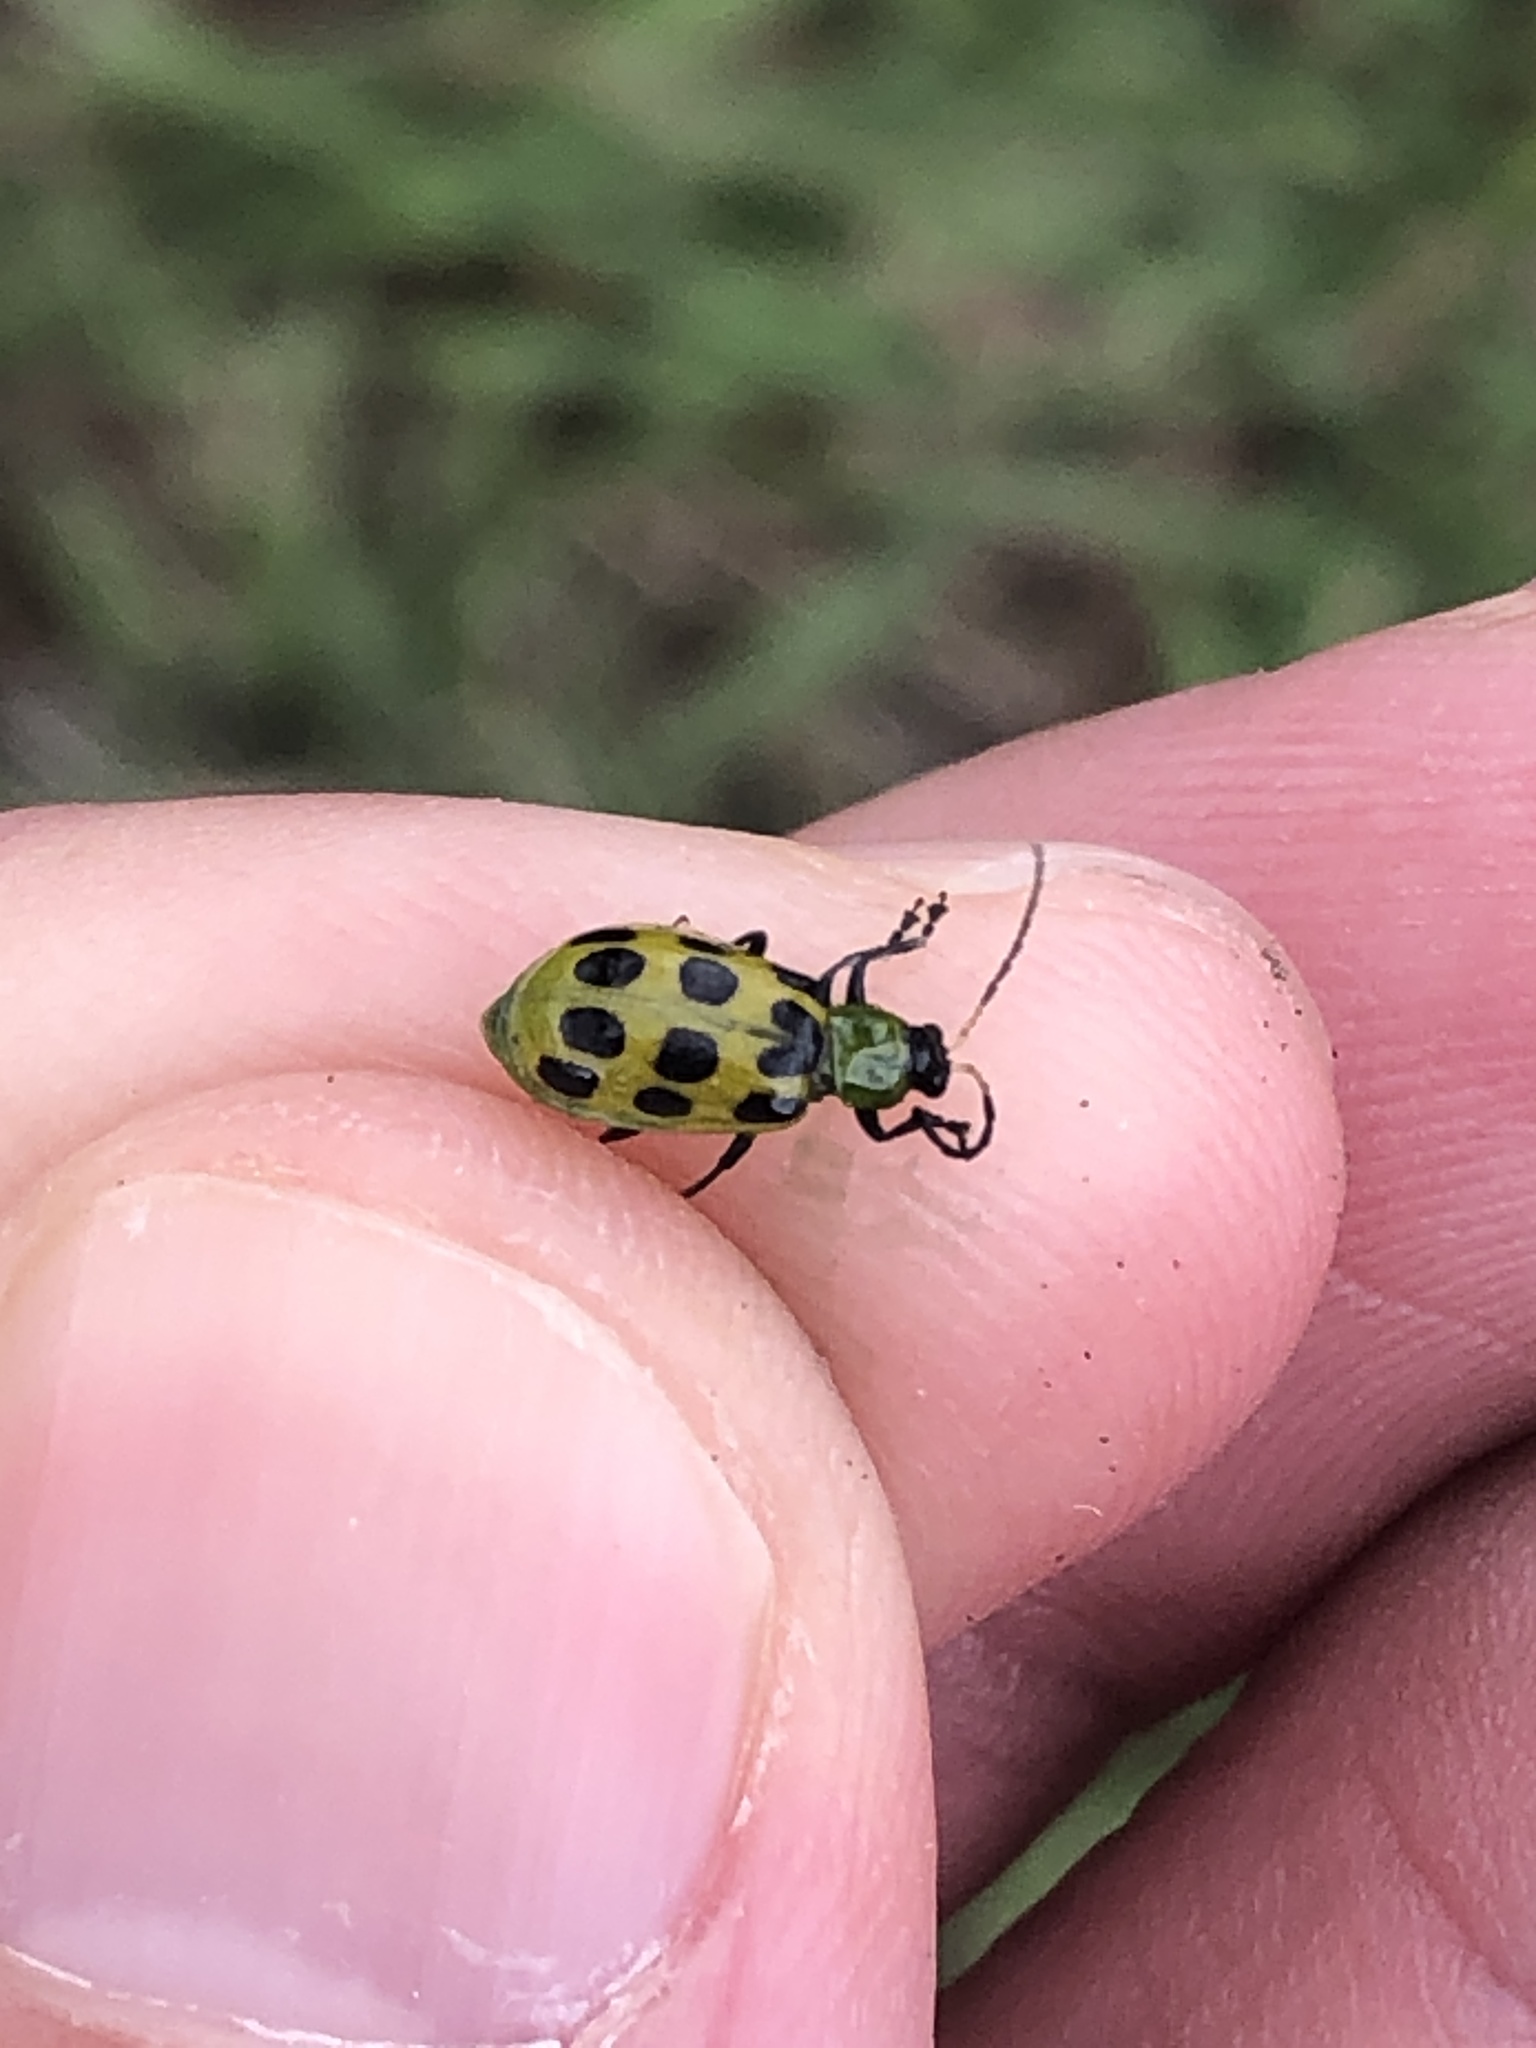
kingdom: Animalia
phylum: Arthropoda
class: Insecta
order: Coleoptera
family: Chrysomelidae
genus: Diabrotica
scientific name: Diabrotica undecimpunctata
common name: Spotted cucumber beetle
